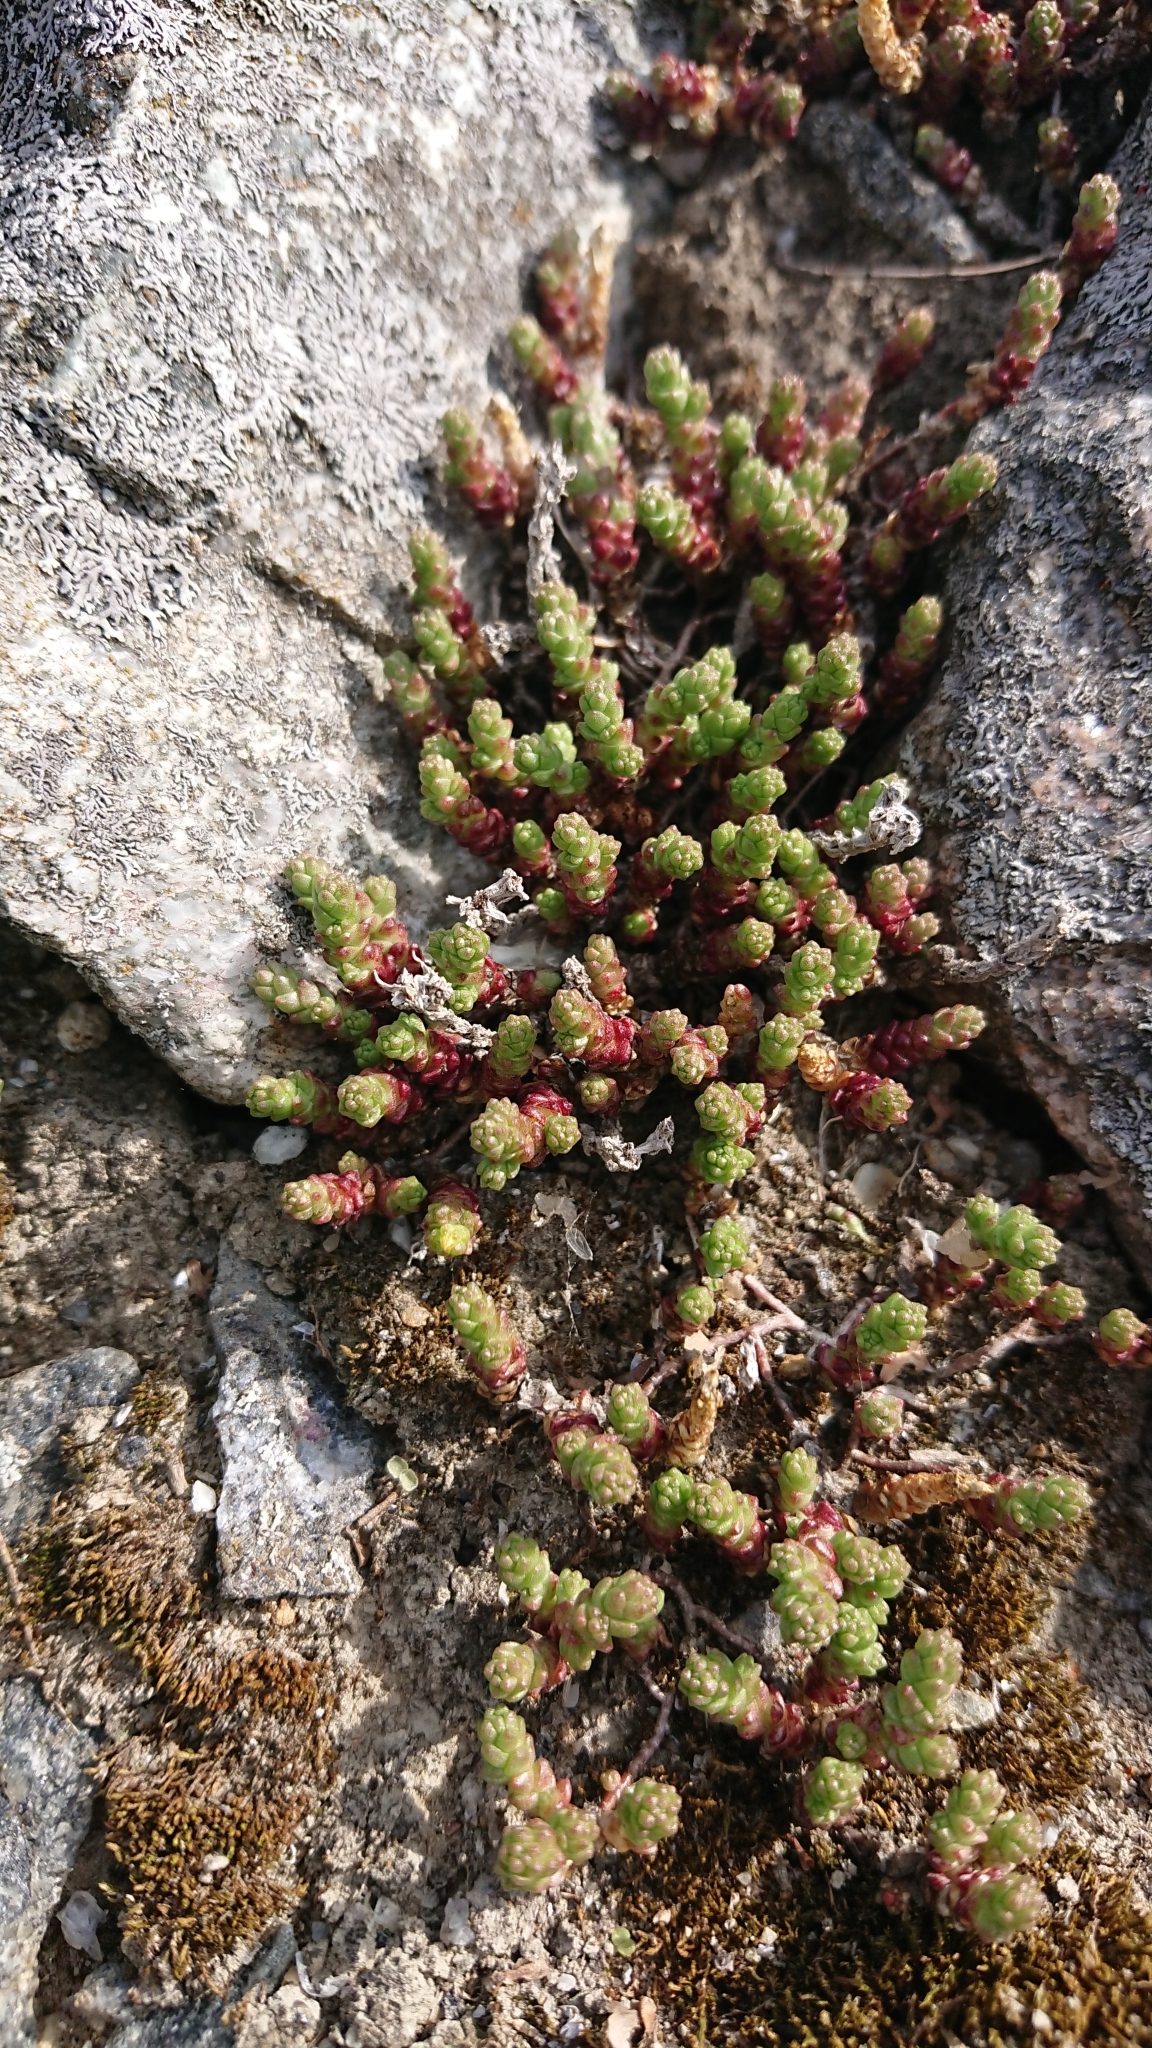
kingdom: Plantae
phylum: Tracheophyta
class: Magnoliopsida
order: Saxifragales
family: Crassulaceae
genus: Sedum
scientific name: Sedum acre
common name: Biting stonecrop
